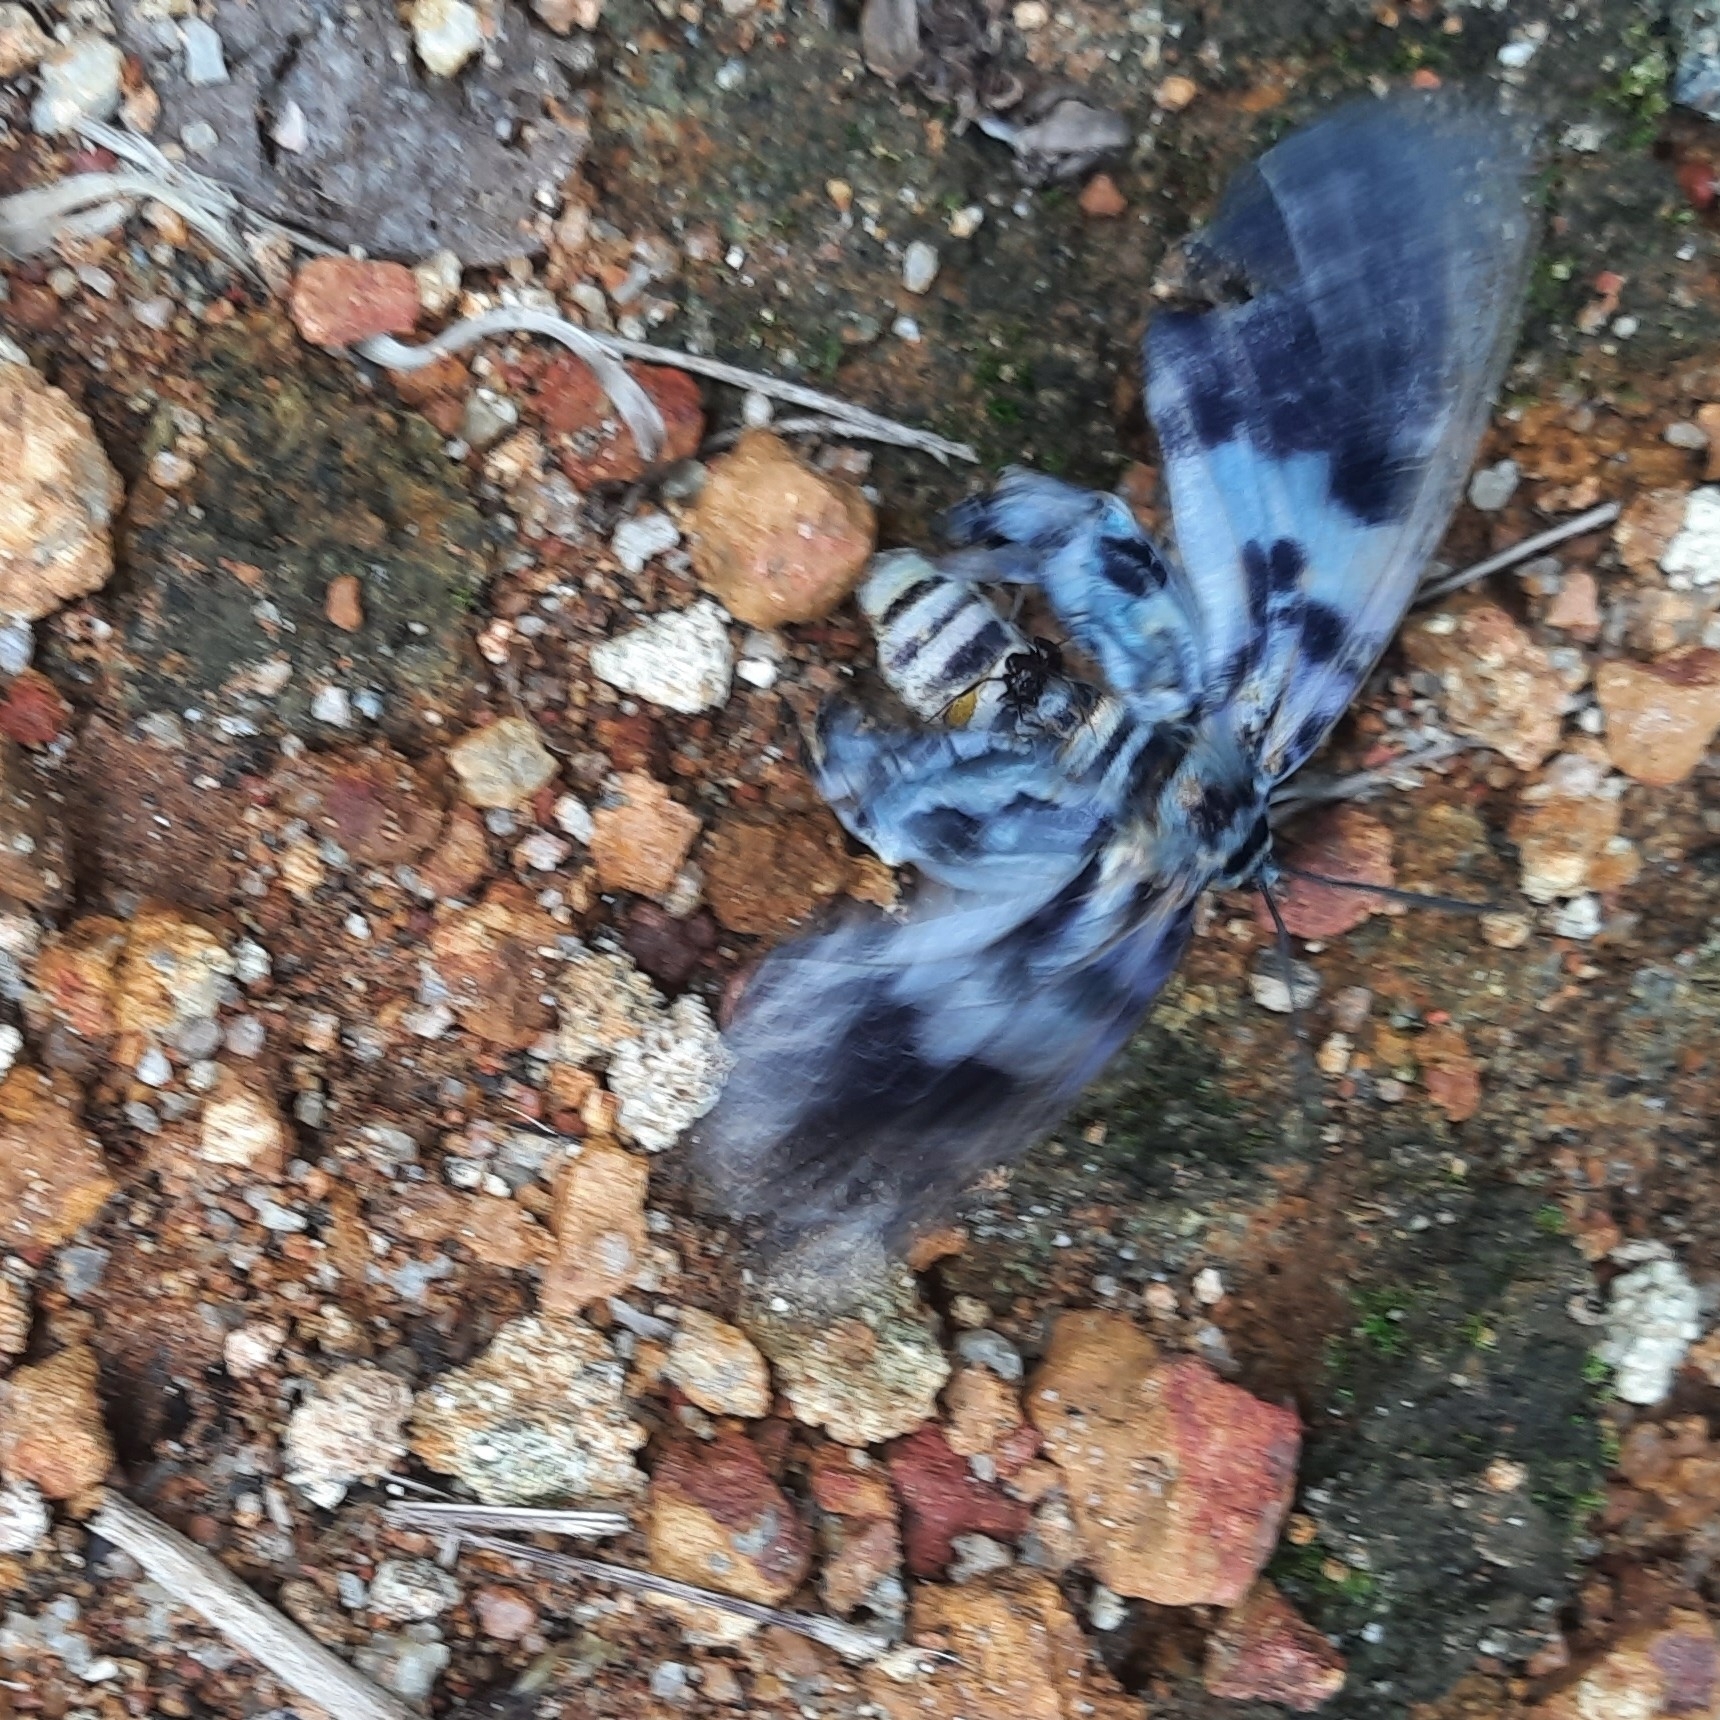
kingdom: Animalia
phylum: Arthropoda
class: Insecta
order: Lepidoptera
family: Geometridae
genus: Dysphania
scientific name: Dysphania percota
